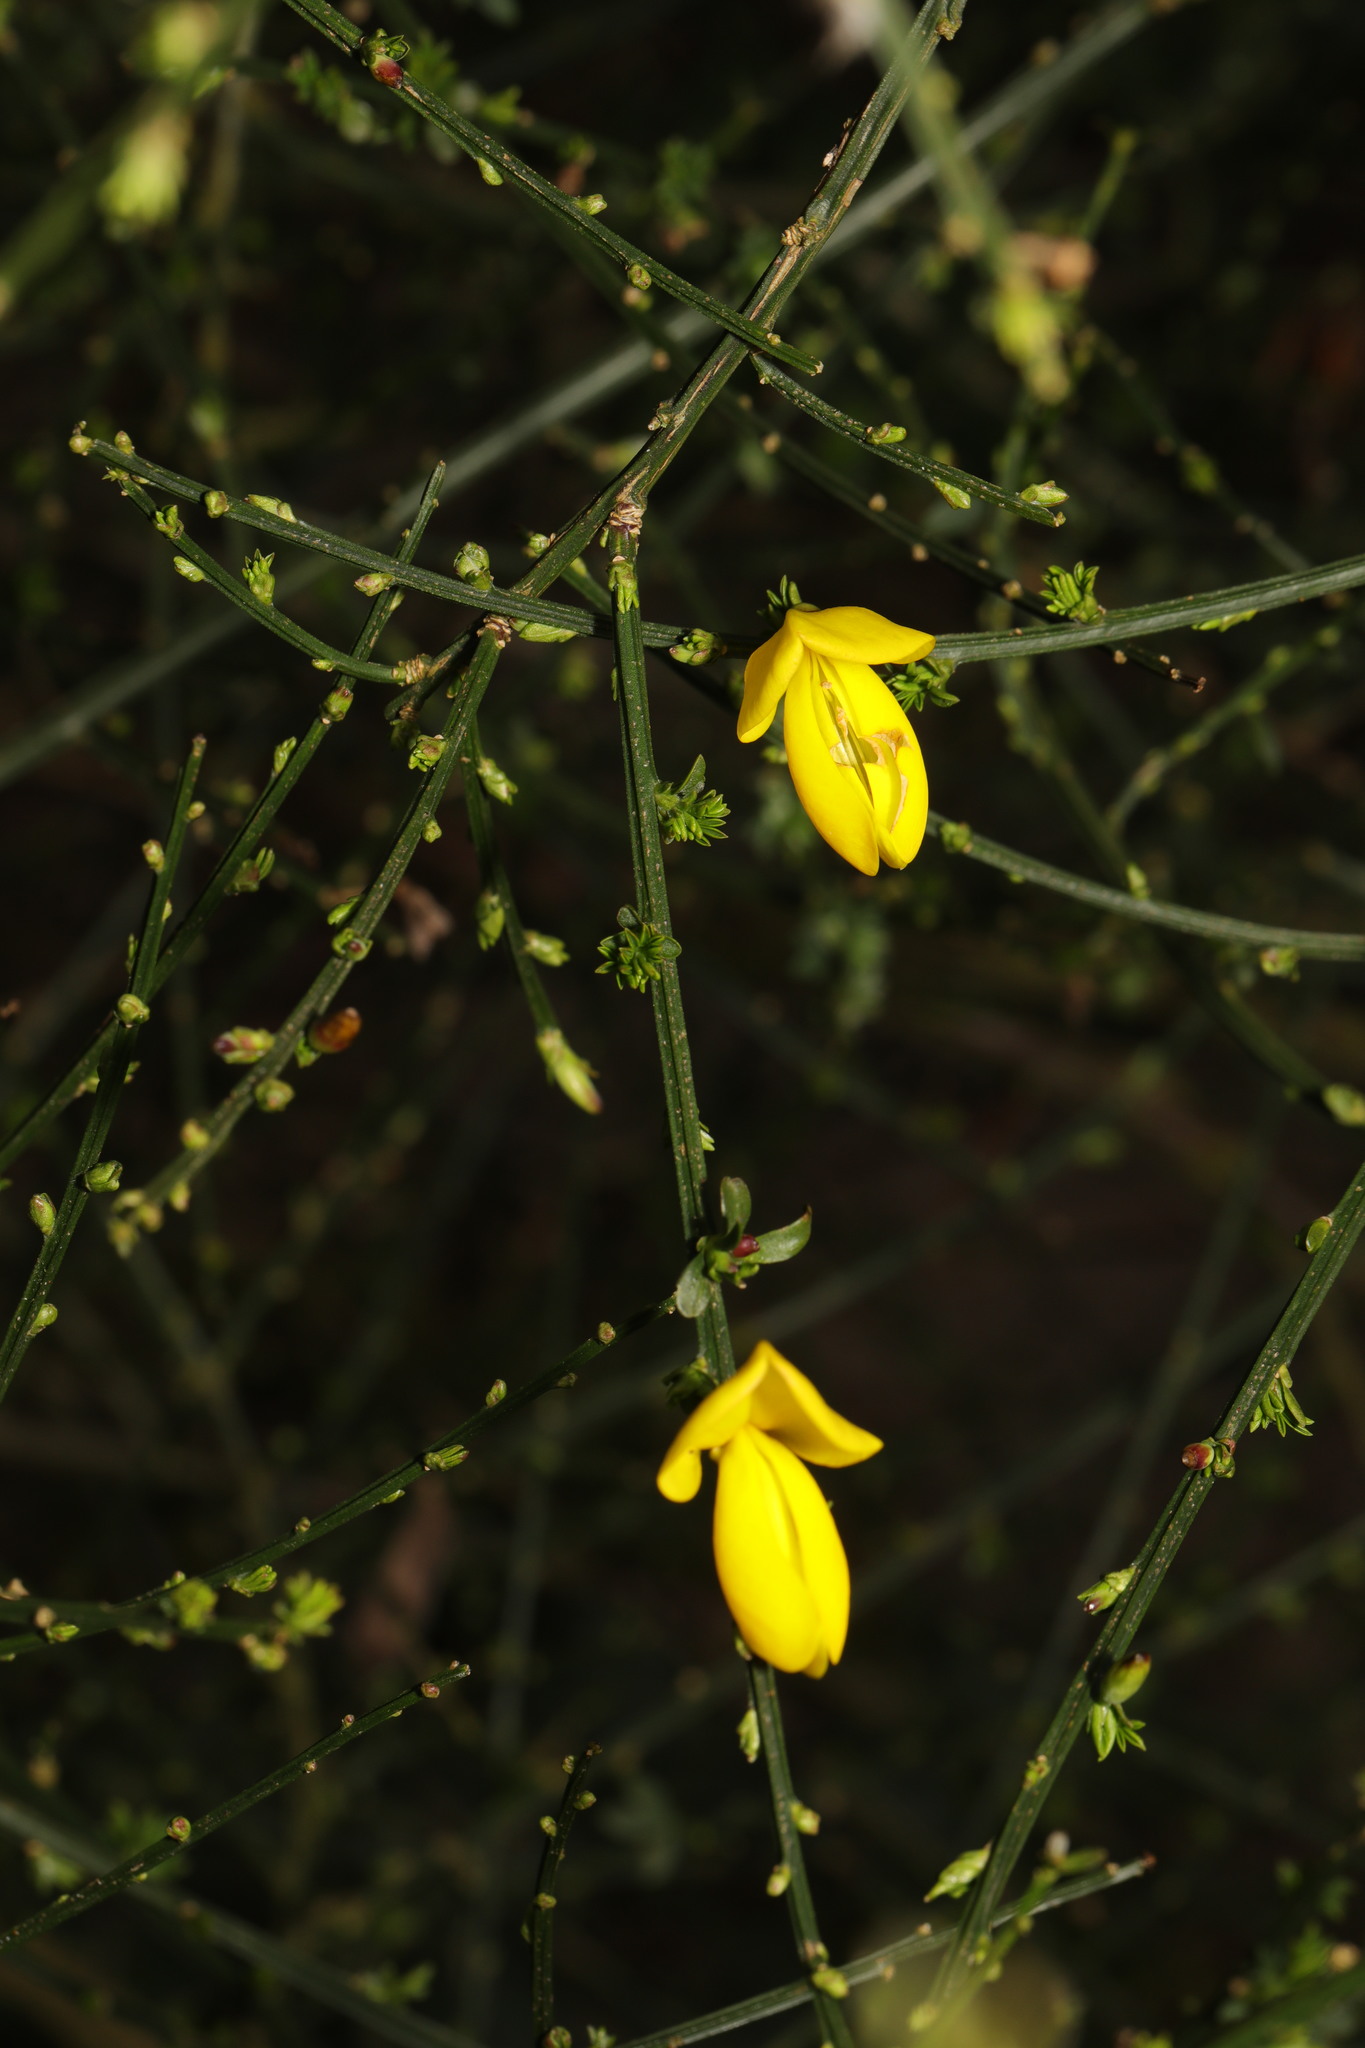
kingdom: Plantae
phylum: Tracheophyta
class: Magnoliopsida
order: Fabales
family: Fabaceae
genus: Cytisus
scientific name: Cytisus scoparius
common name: Scotch broom
